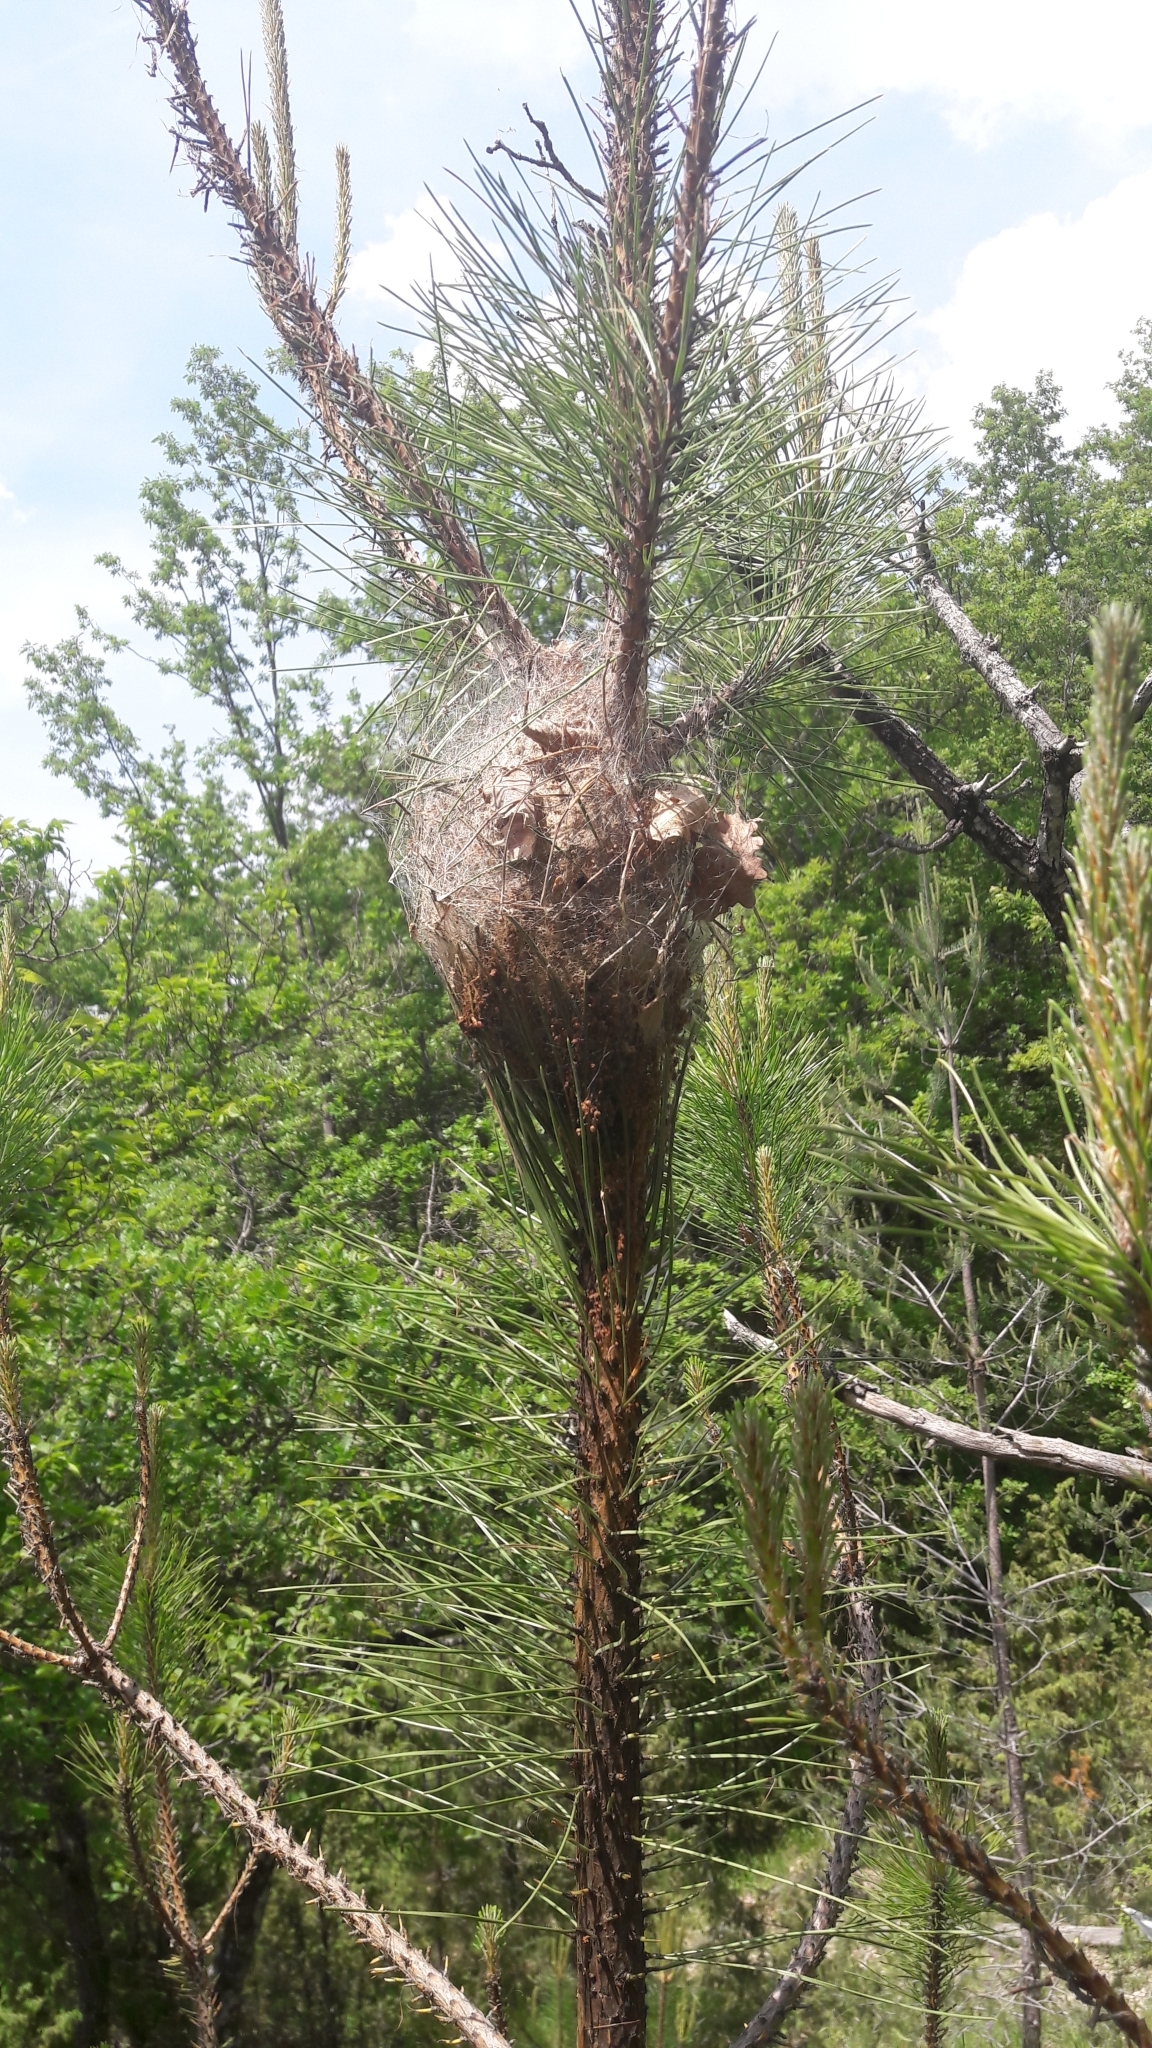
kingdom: Animalia
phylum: Arthropoda
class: Insecta
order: Lepidoptera
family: Notodontidae
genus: Thaumetopoea
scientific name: Thaumetopoea pityocampa
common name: Pine processionary
